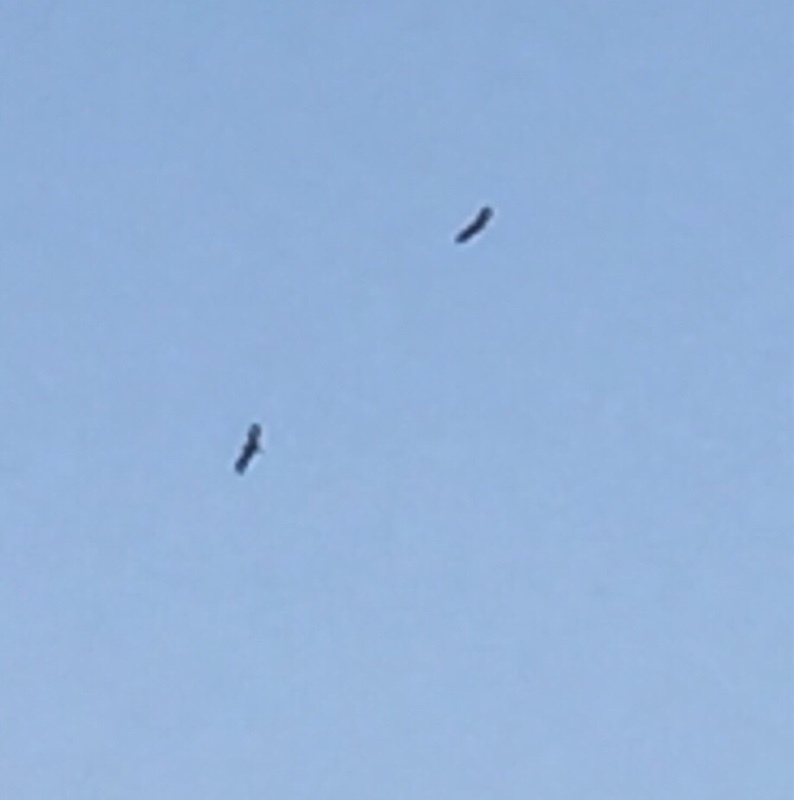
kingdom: Animalia
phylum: Chordata
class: Aves
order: Accipitriformes
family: Accipitridae
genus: Neophron
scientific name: Neophron percnopterus
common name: Egyptian vulture
